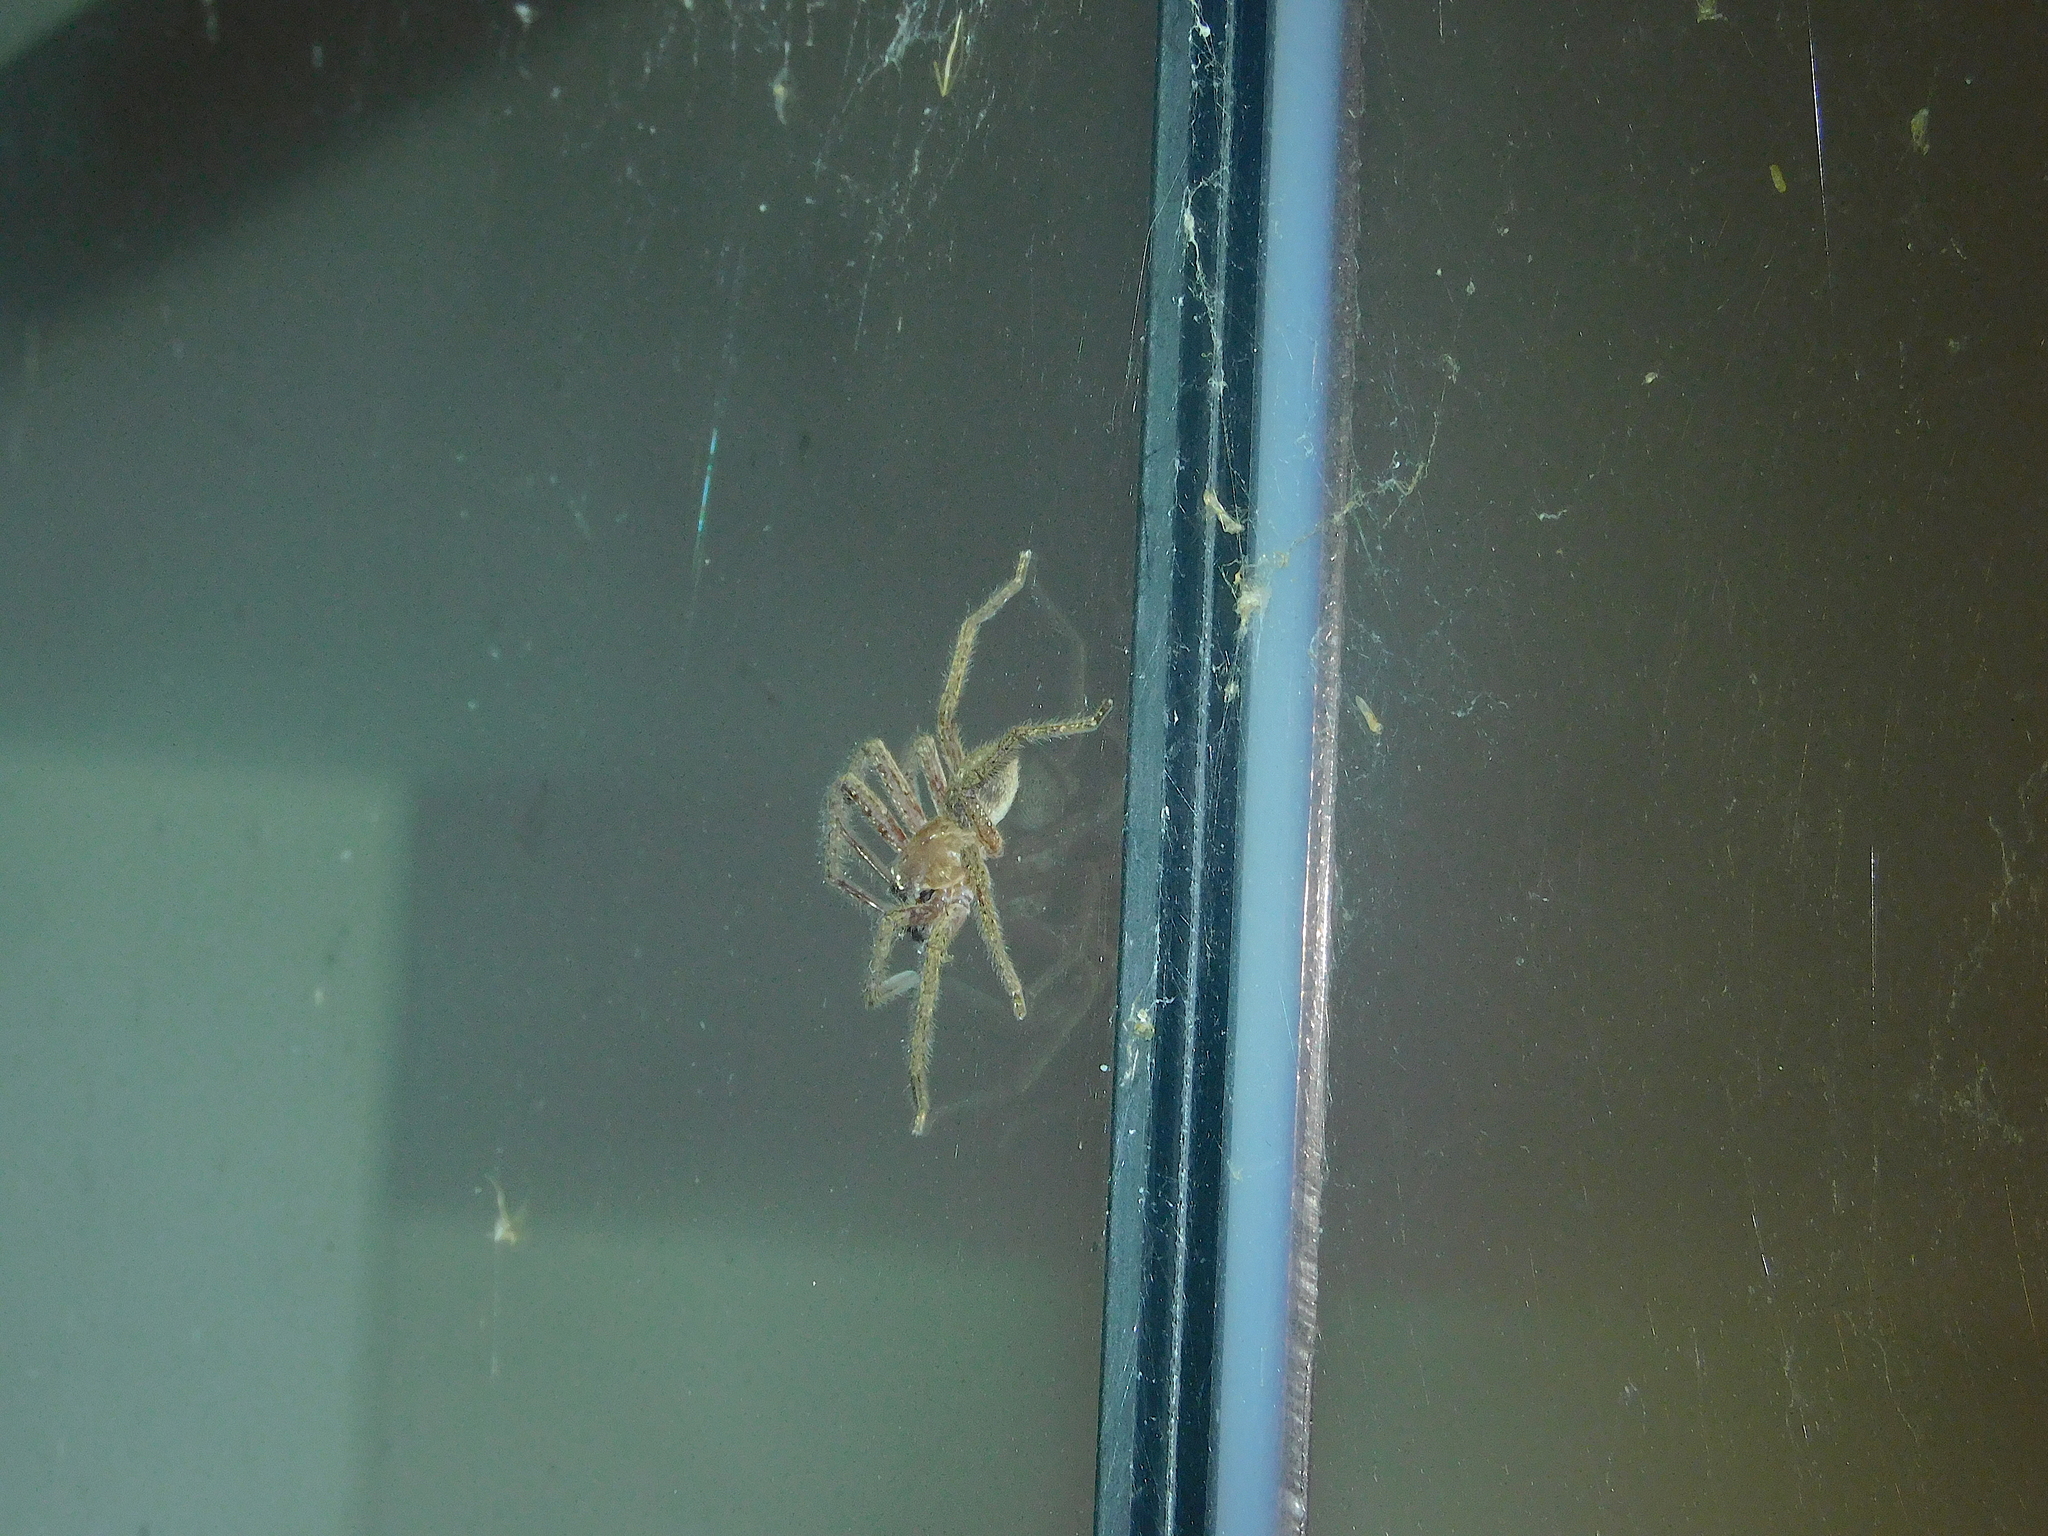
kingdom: Animalia
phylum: Arthropoda
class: Arachnida
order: Araneae
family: Sparassidae
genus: Neosparassus
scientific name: Neosparassus diana
